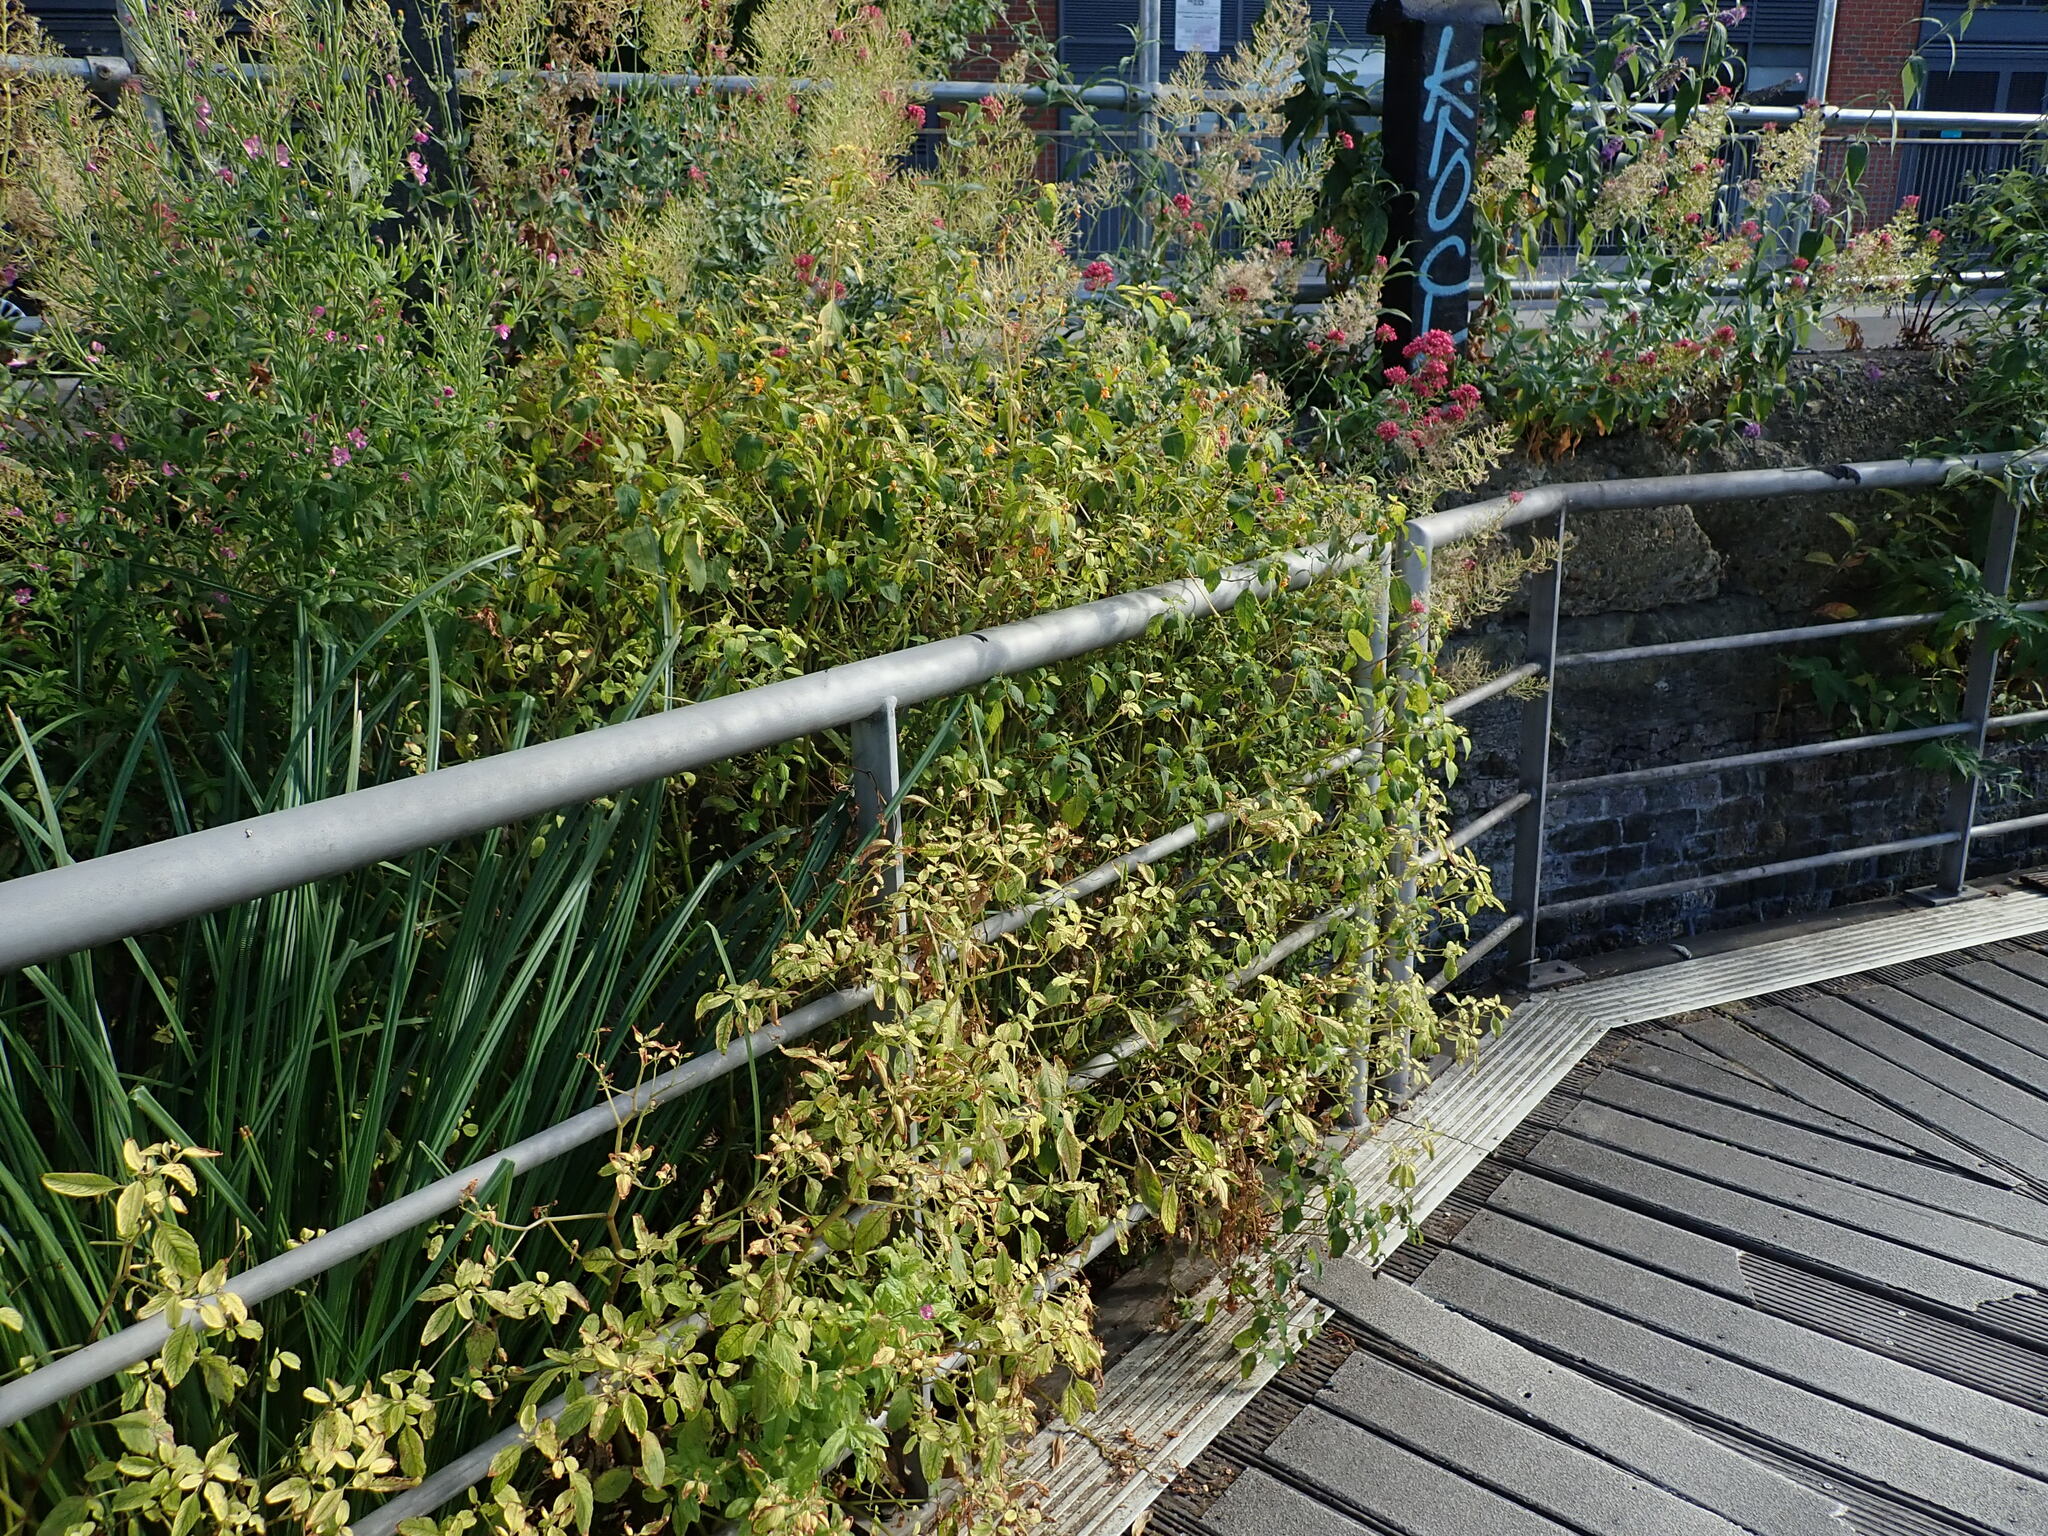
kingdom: Plantae
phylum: Tracheophyta
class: Magnoliopsida
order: Ericales
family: Balsaminaceae
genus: Impatiens
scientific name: Impatiens capensis
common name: Orange balsam
